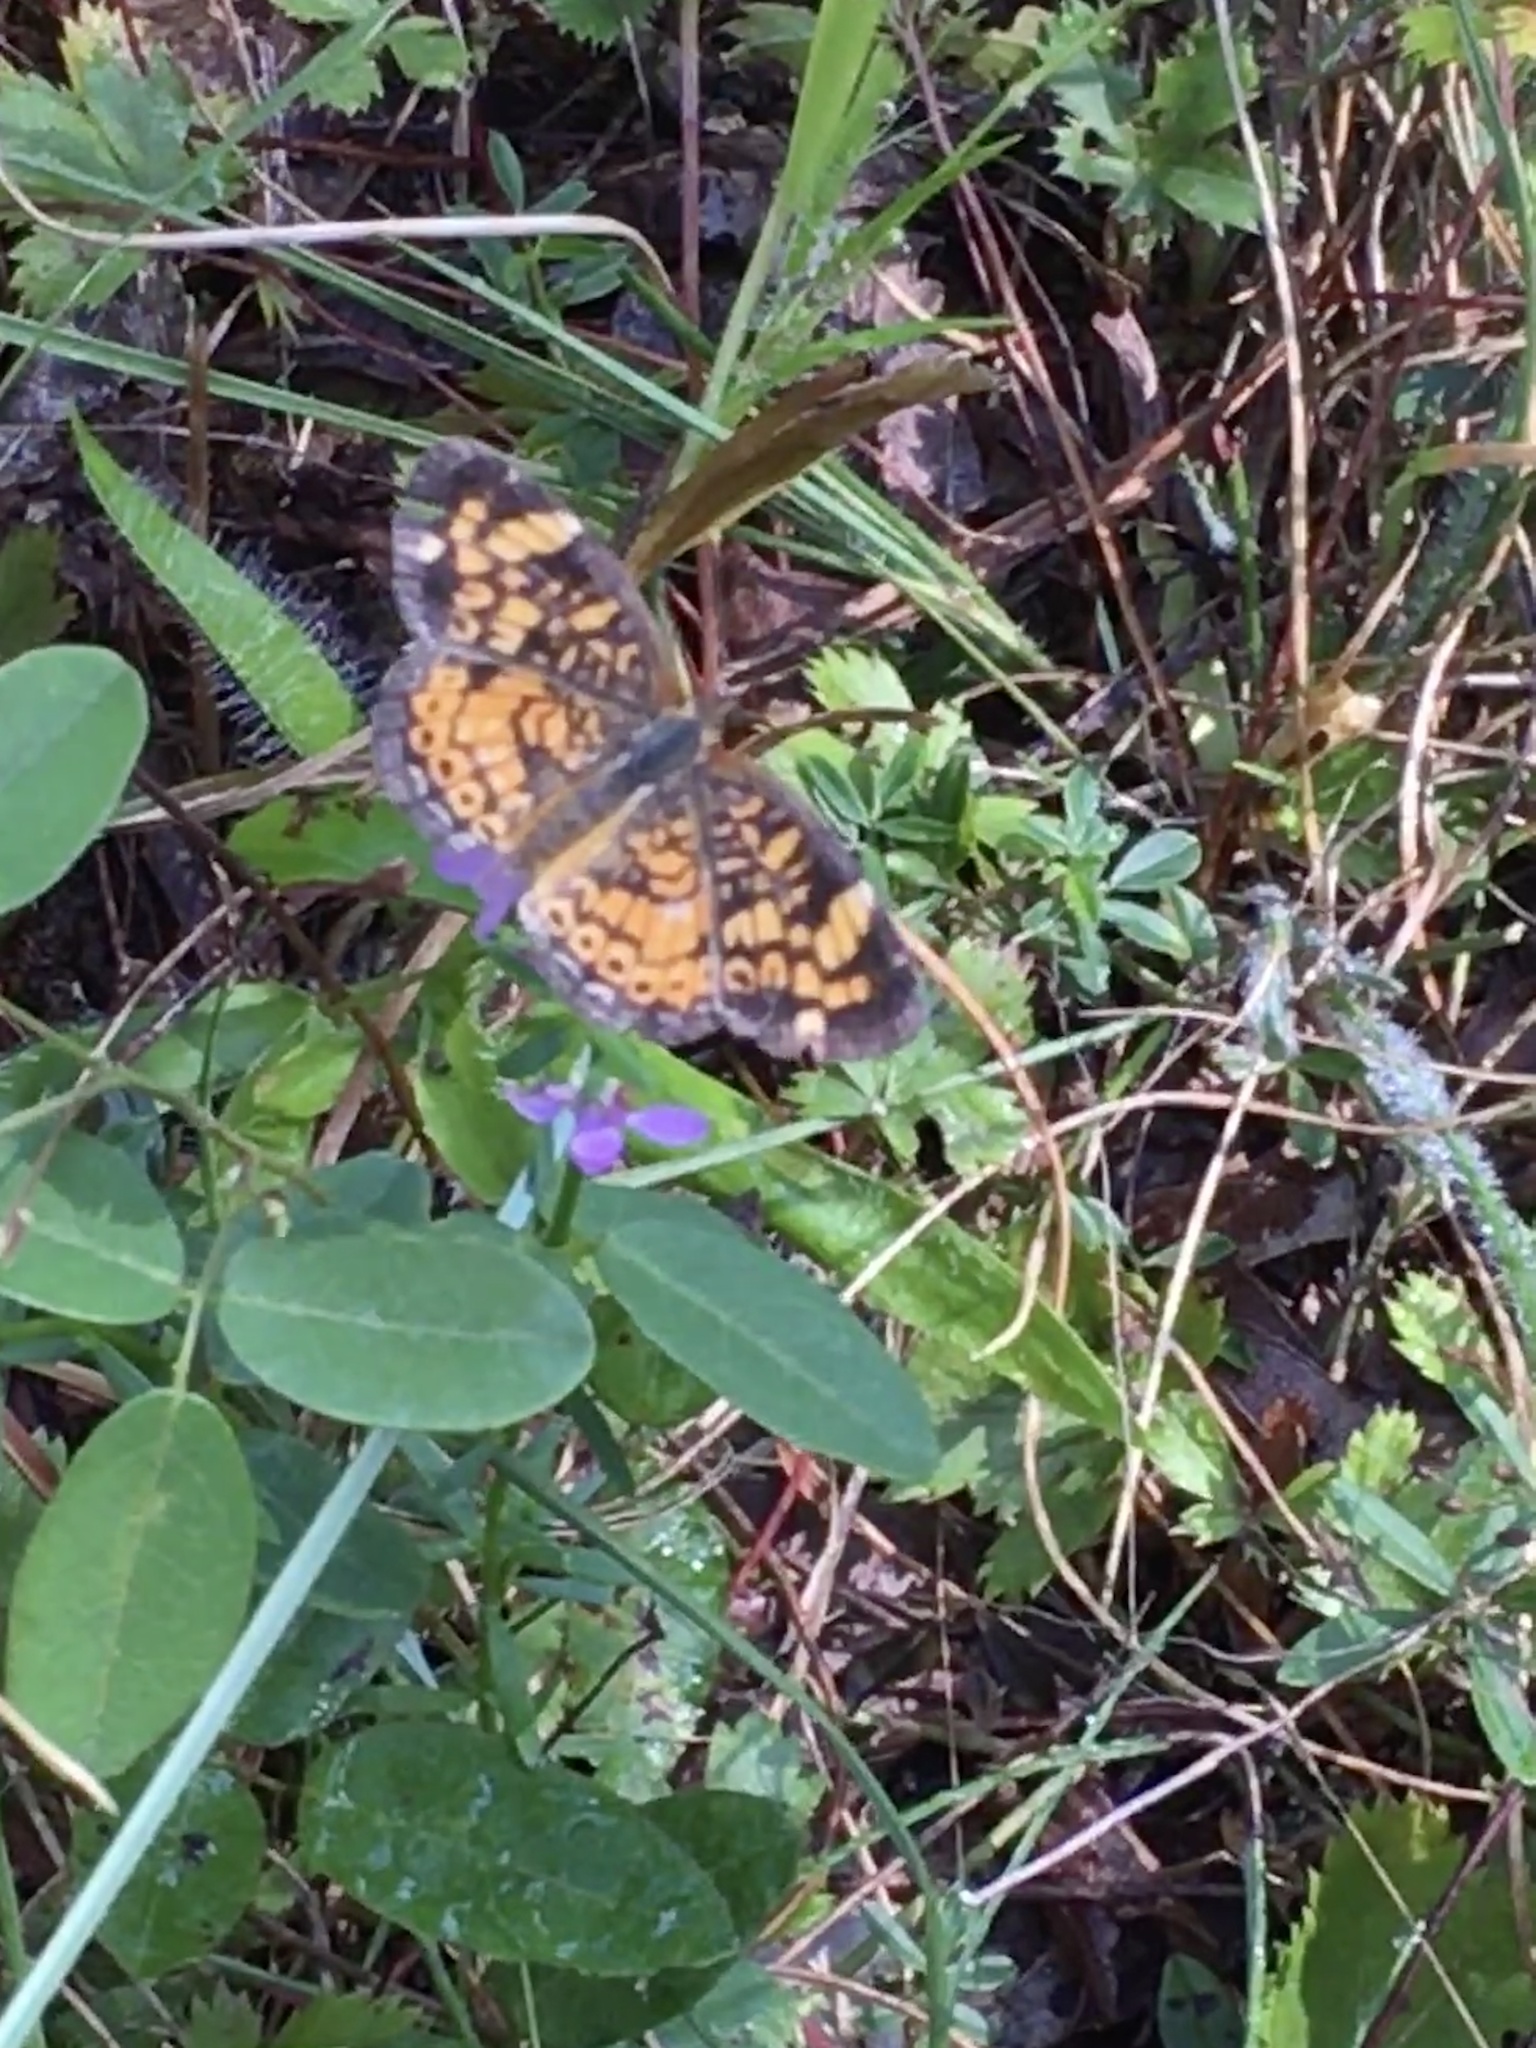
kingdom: Animalia
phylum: Arthropoda
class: Insecta
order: Lepidoptera
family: Nymphalidae
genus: Phyciodes
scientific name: Phyciodes tharos
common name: Pearl crescent
